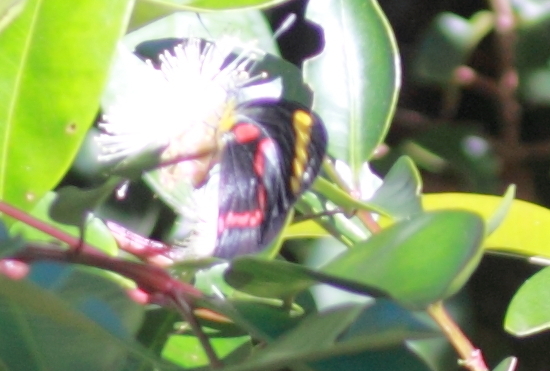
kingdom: Animalia
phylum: Arthropoda
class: Insecta
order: Lepidoptera
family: Pieridae
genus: Delias
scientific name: Delias nigrina
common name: Black jezebel
